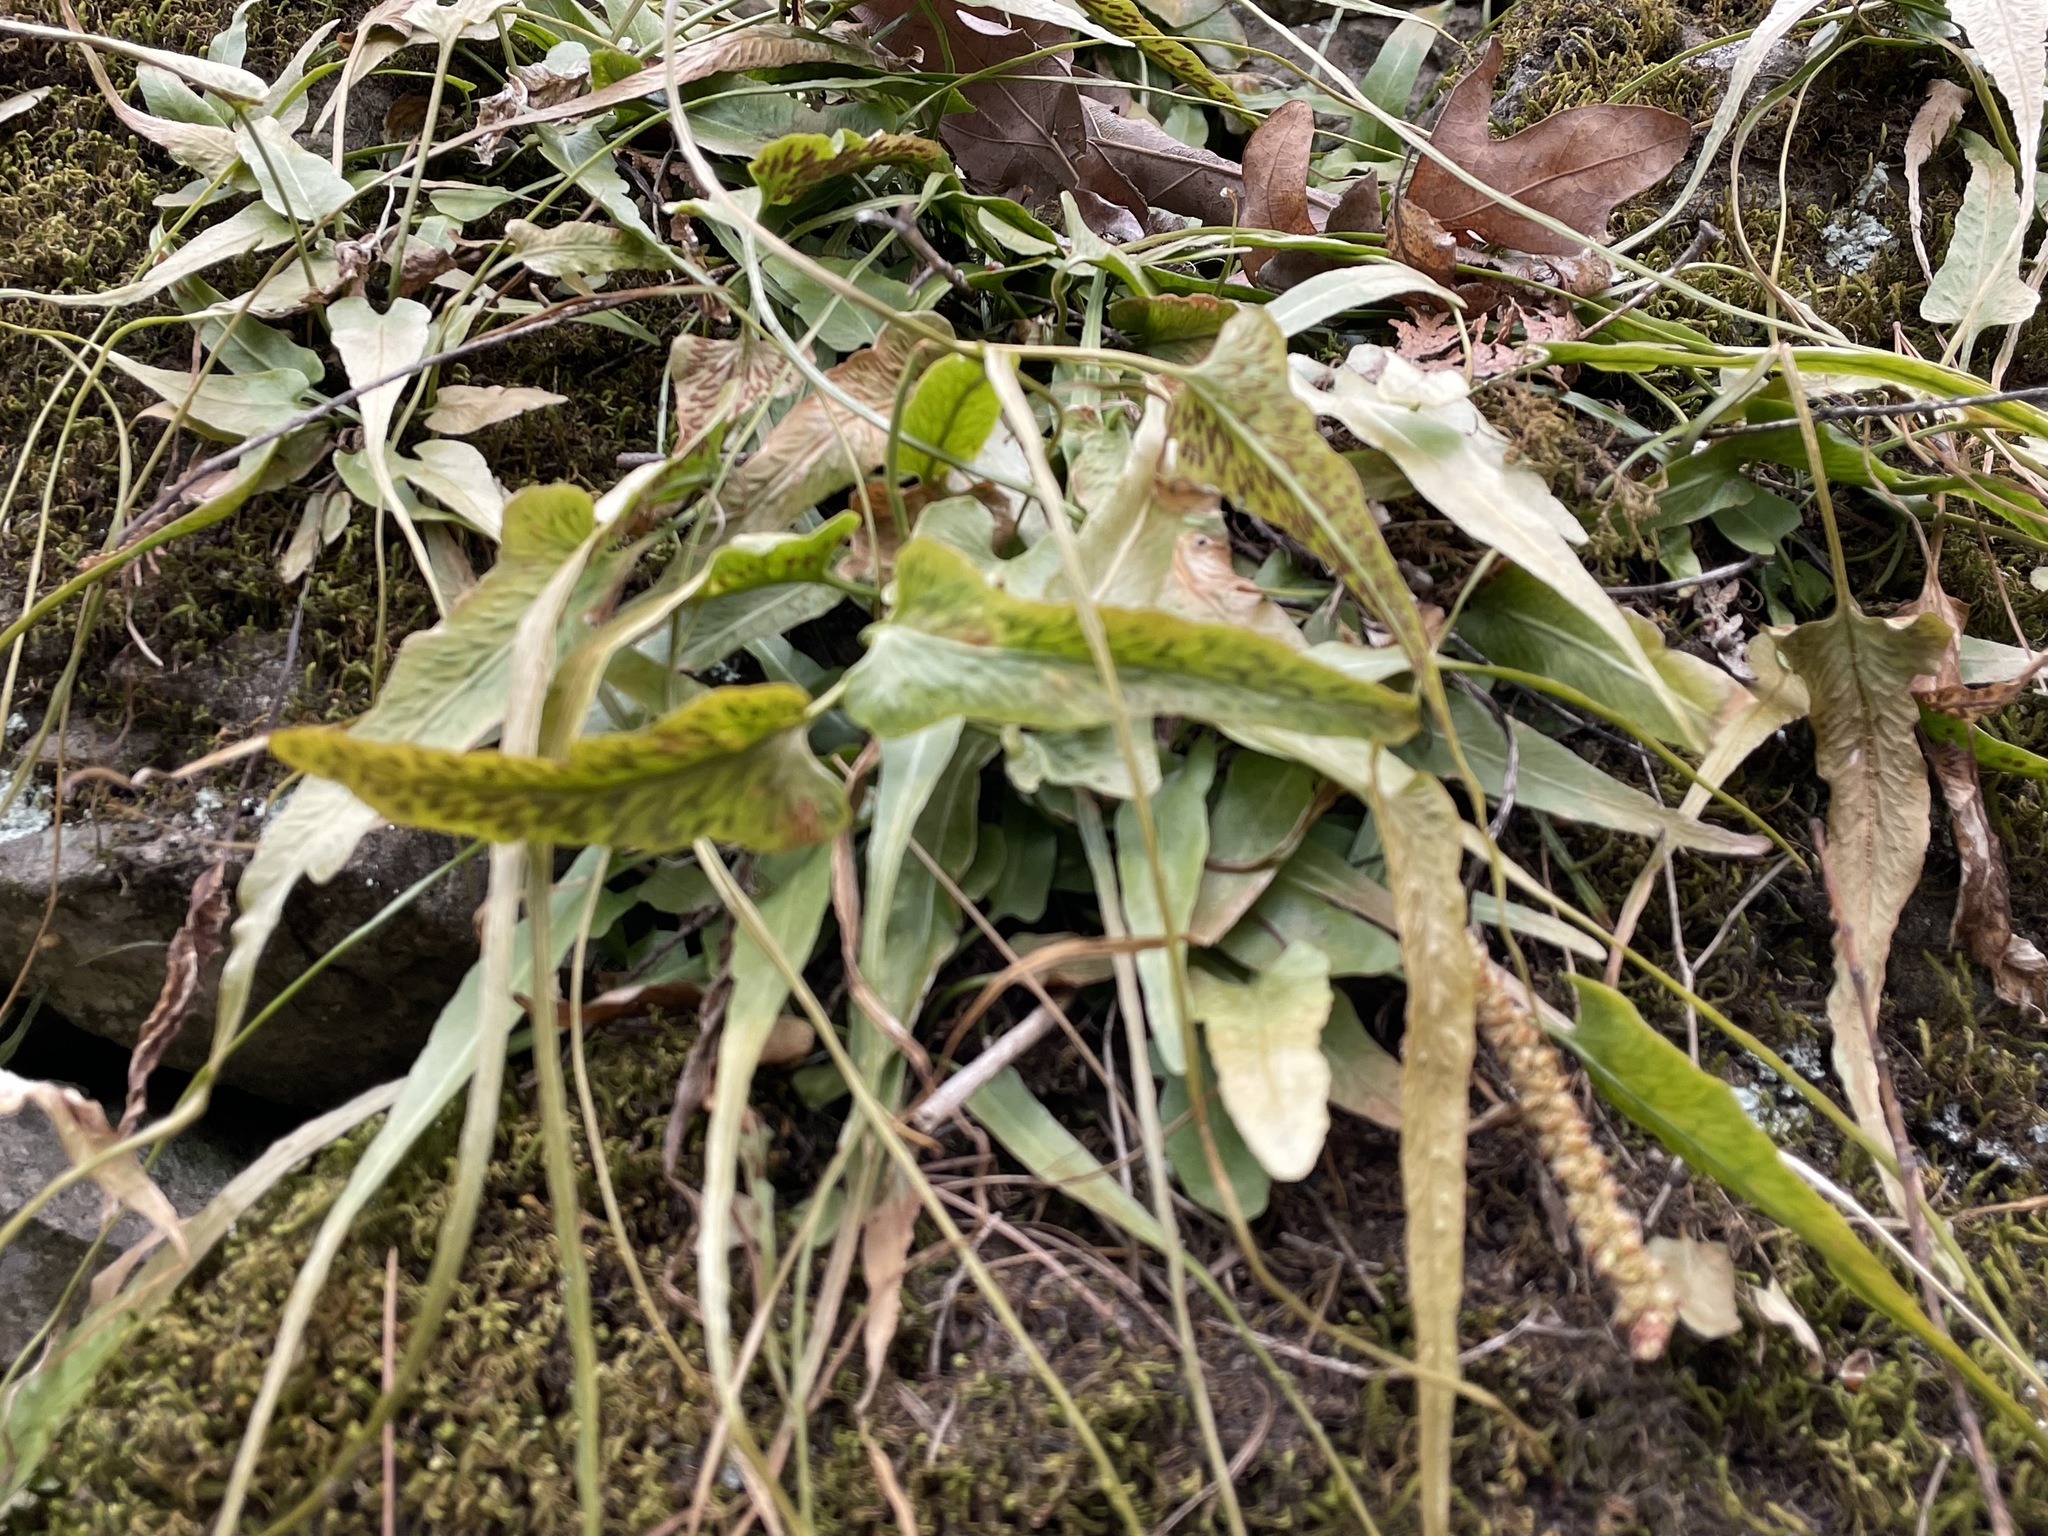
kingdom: Plantae
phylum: Tracheophyta
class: Polypodiopsida
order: Polypodiales
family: Aspleniaceae
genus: Asplenium
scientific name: Asplenium rhizophyllum
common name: Walking fern
